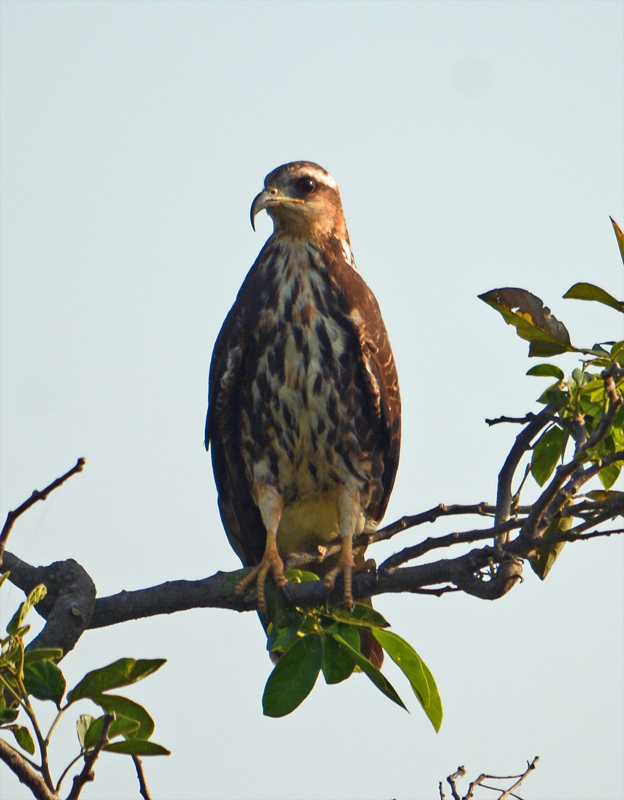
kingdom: Animalia
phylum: Chordata
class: Aves
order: Accipitriformes
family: Accipitridae
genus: Rostrhamus
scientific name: Rostrhamus sociabilis
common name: Snail kite
